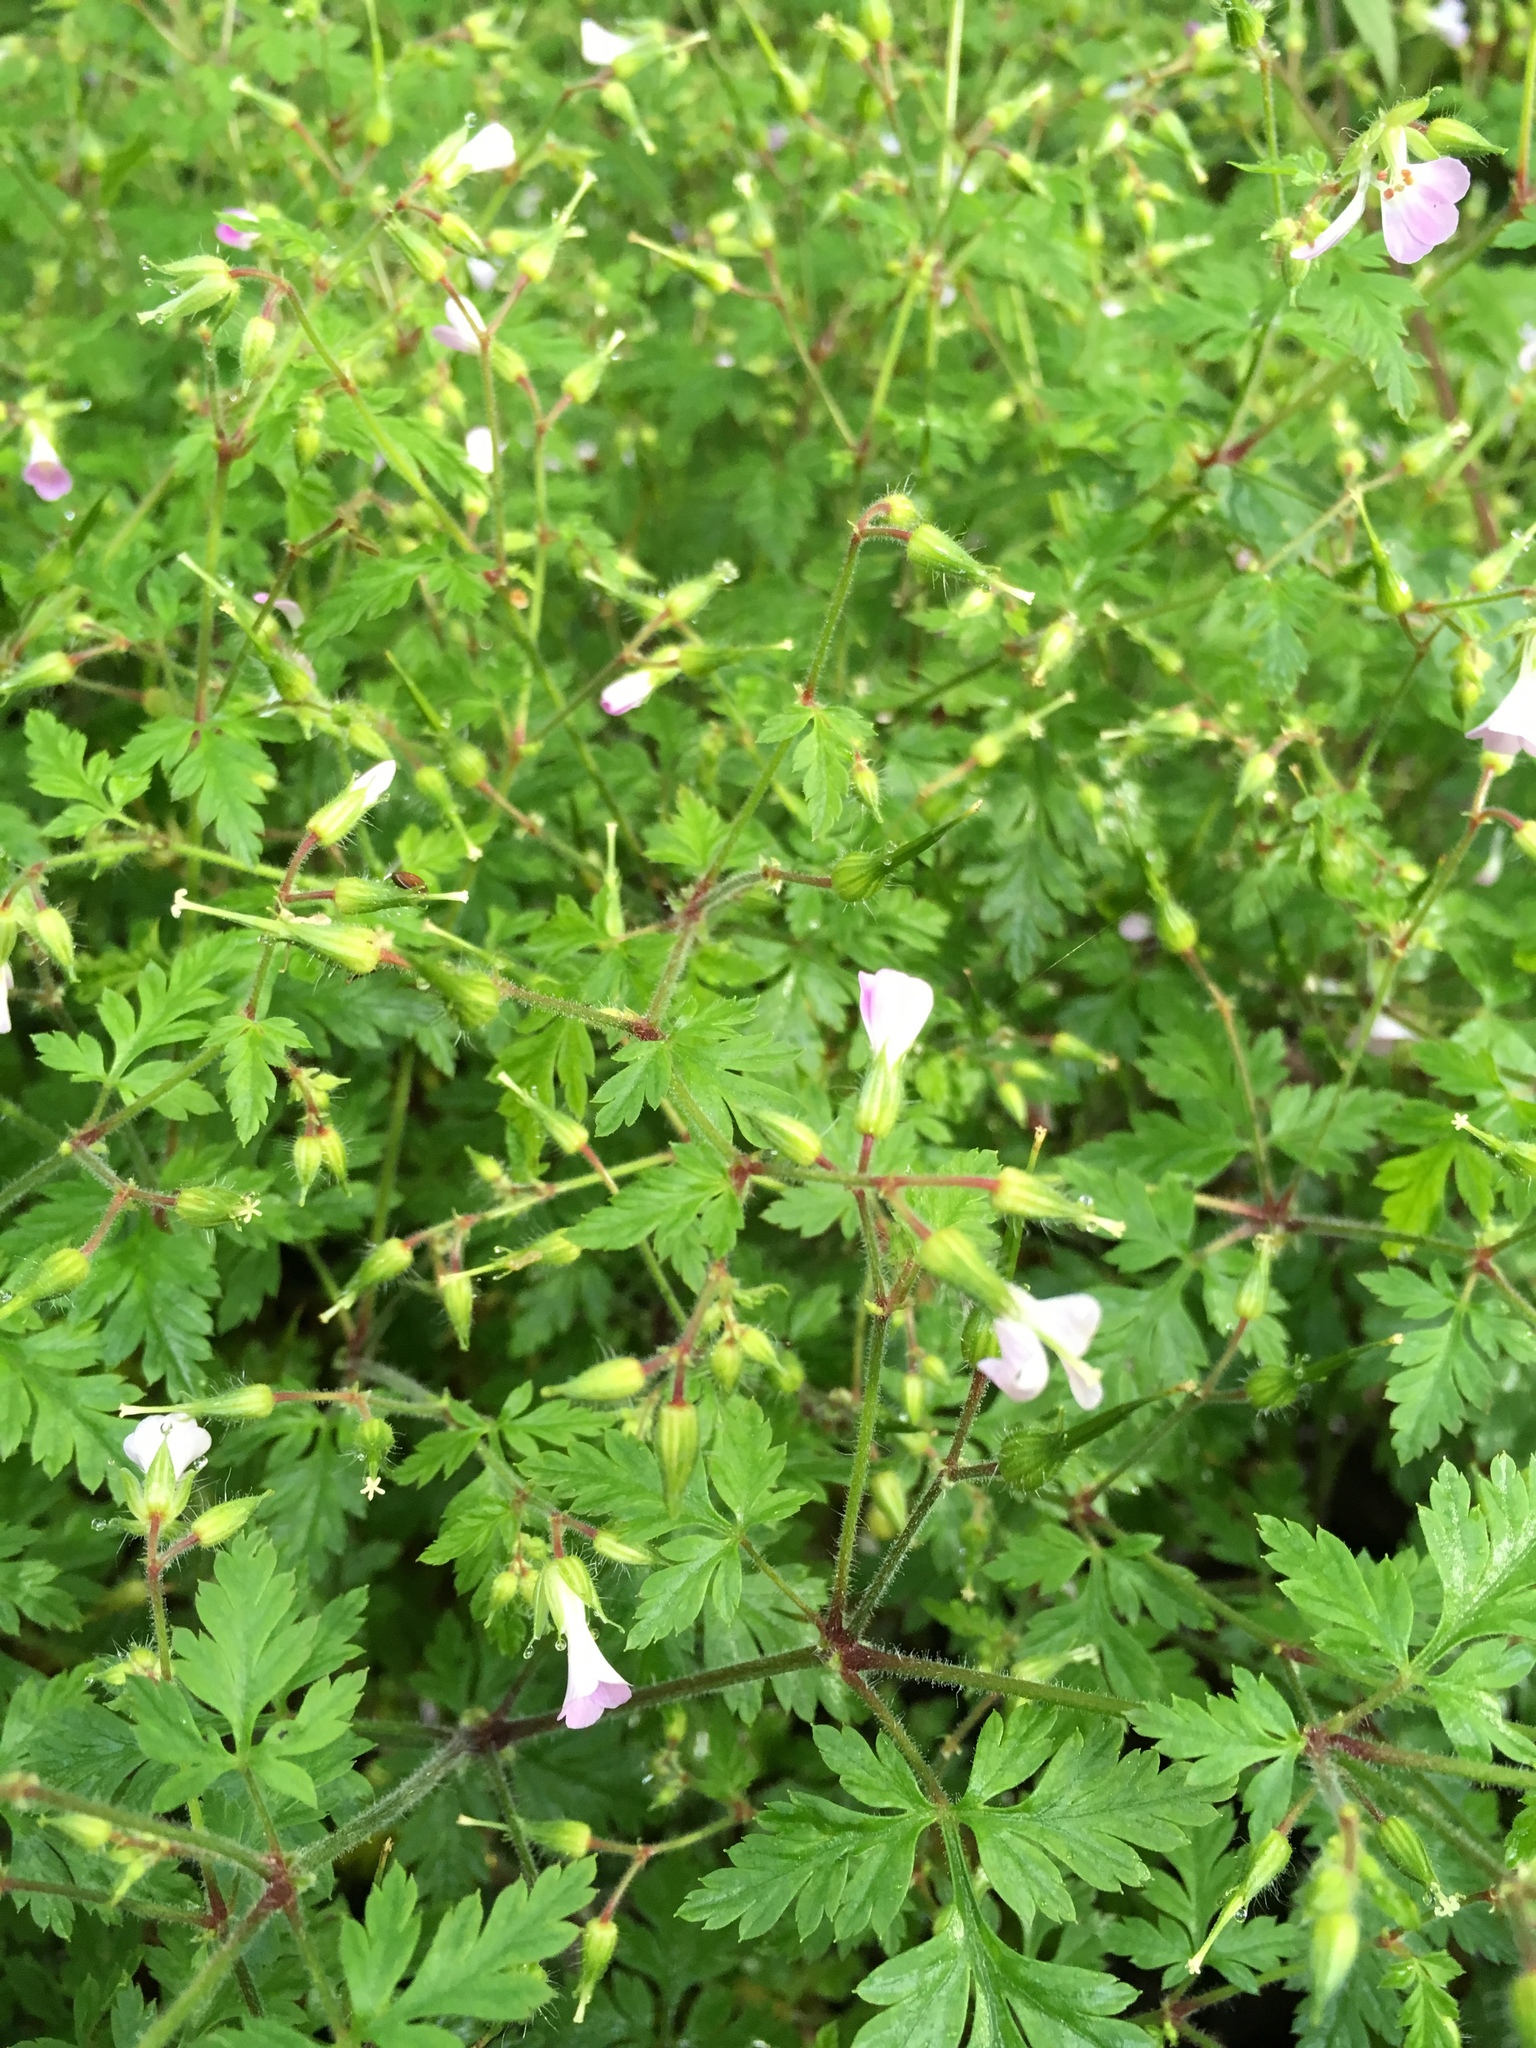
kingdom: Plantae
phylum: Tracheophyta
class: Magnoliopsida
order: Geraniales
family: Geraniaceae
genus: Geranium
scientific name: Geranium robertianum
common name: Herb-robert
